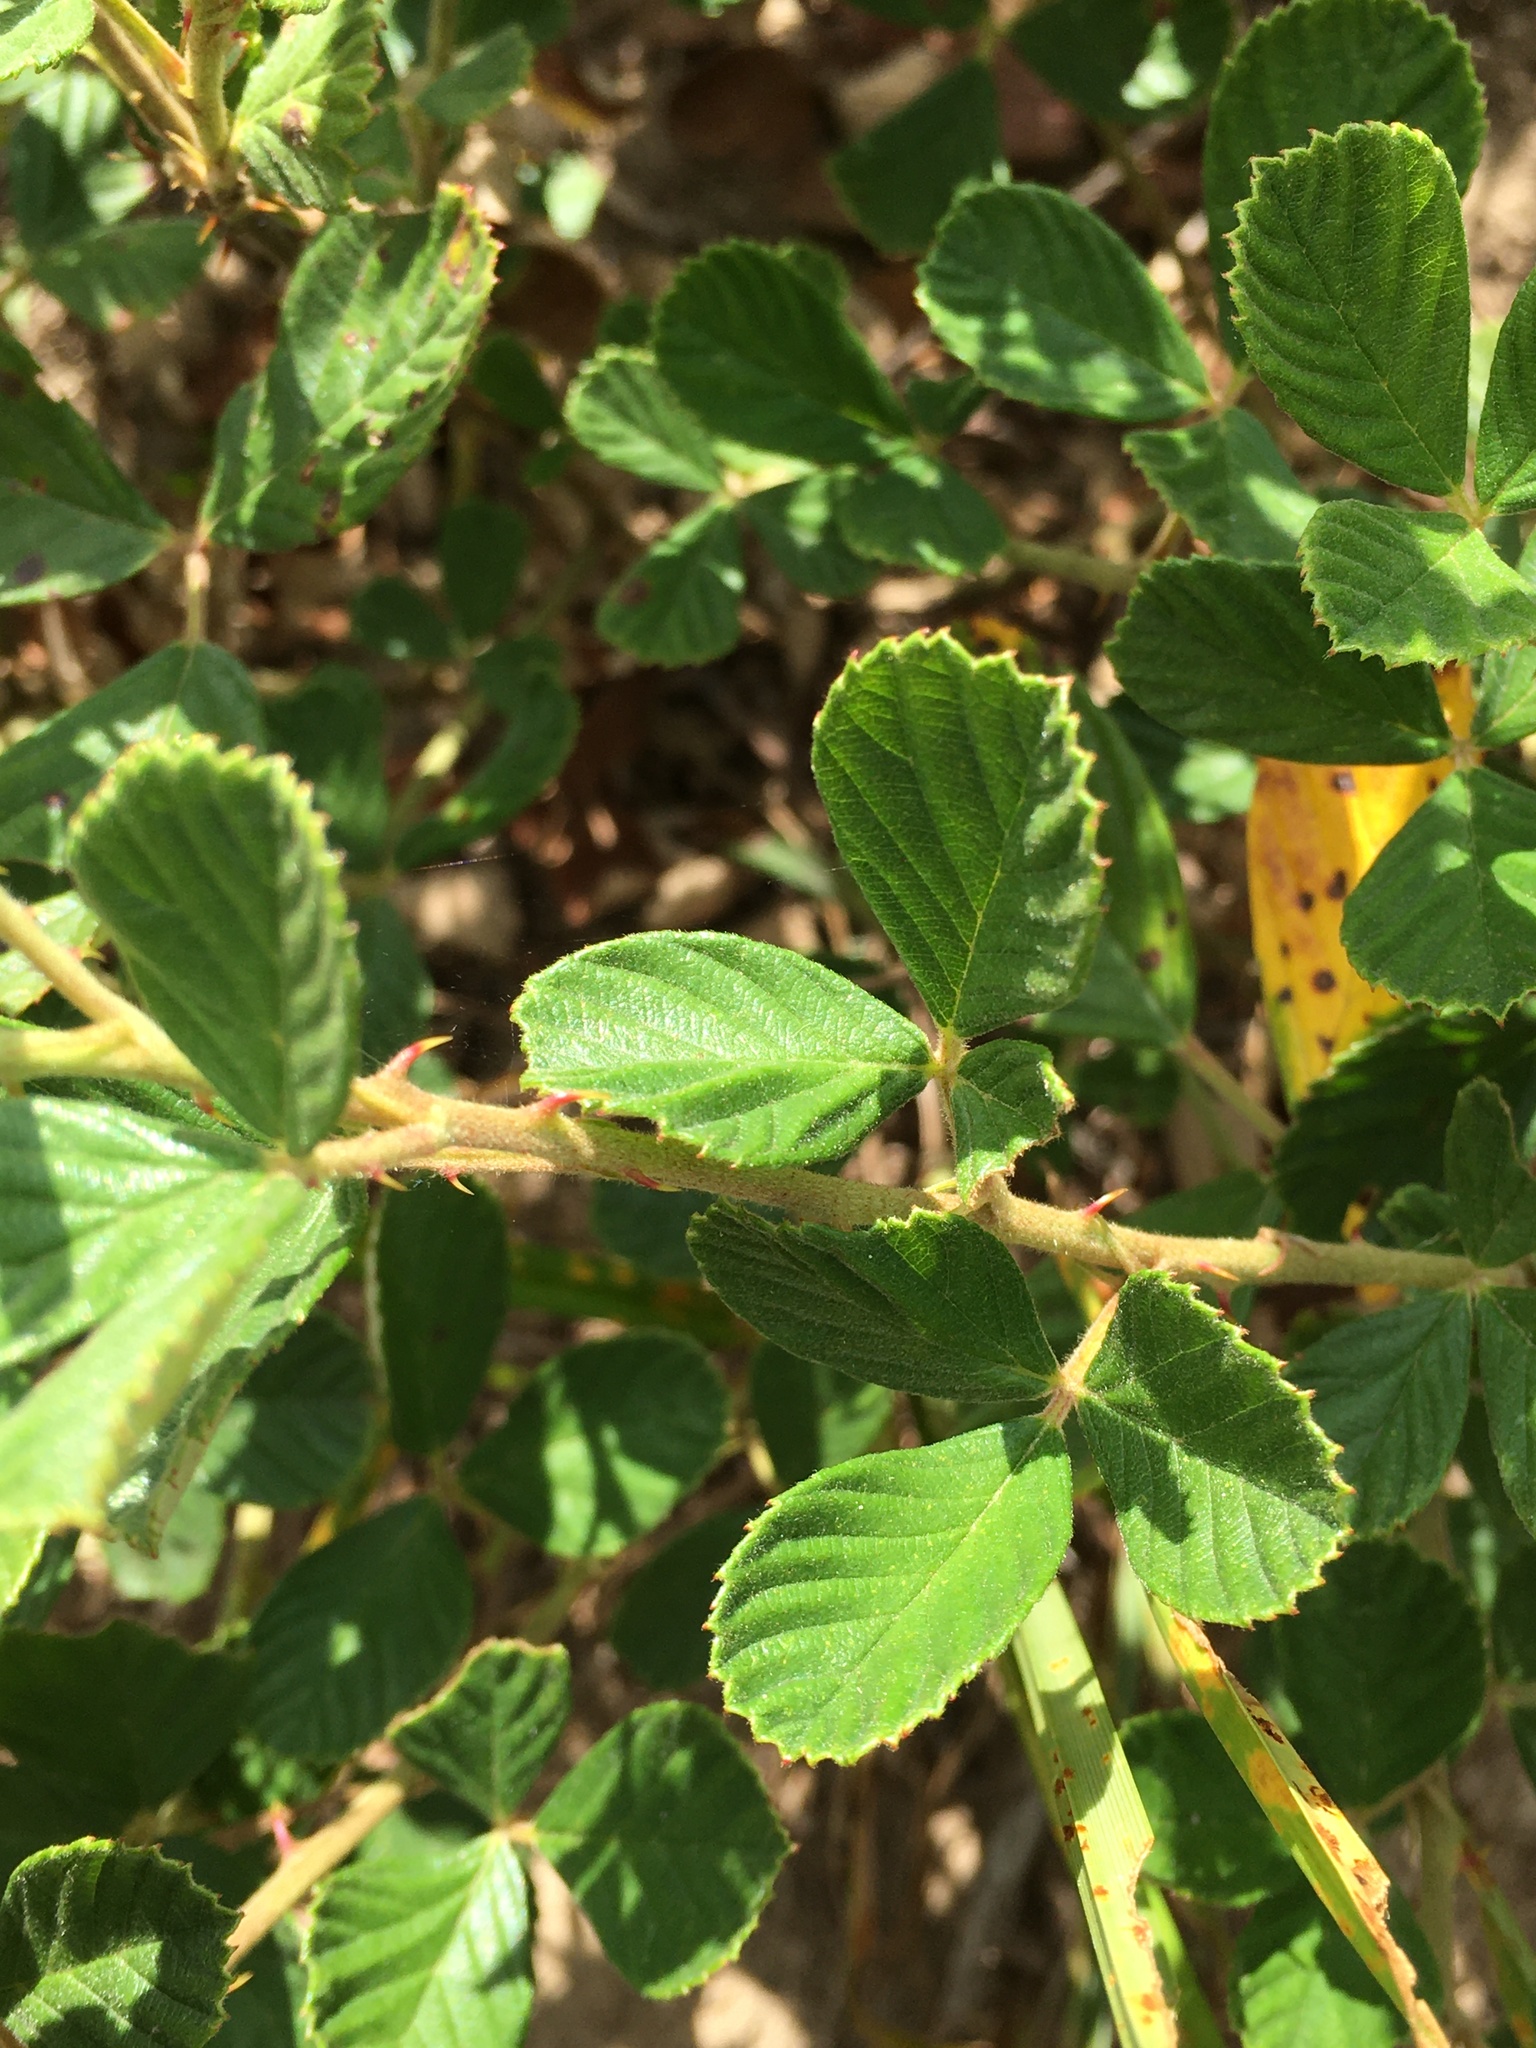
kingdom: Plantae
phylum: Tracheophyta
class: Magnoliopsida
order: Rosales
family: Rosaceae
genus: Rubus
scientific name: Rubus cuneifolius
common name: American bramble
